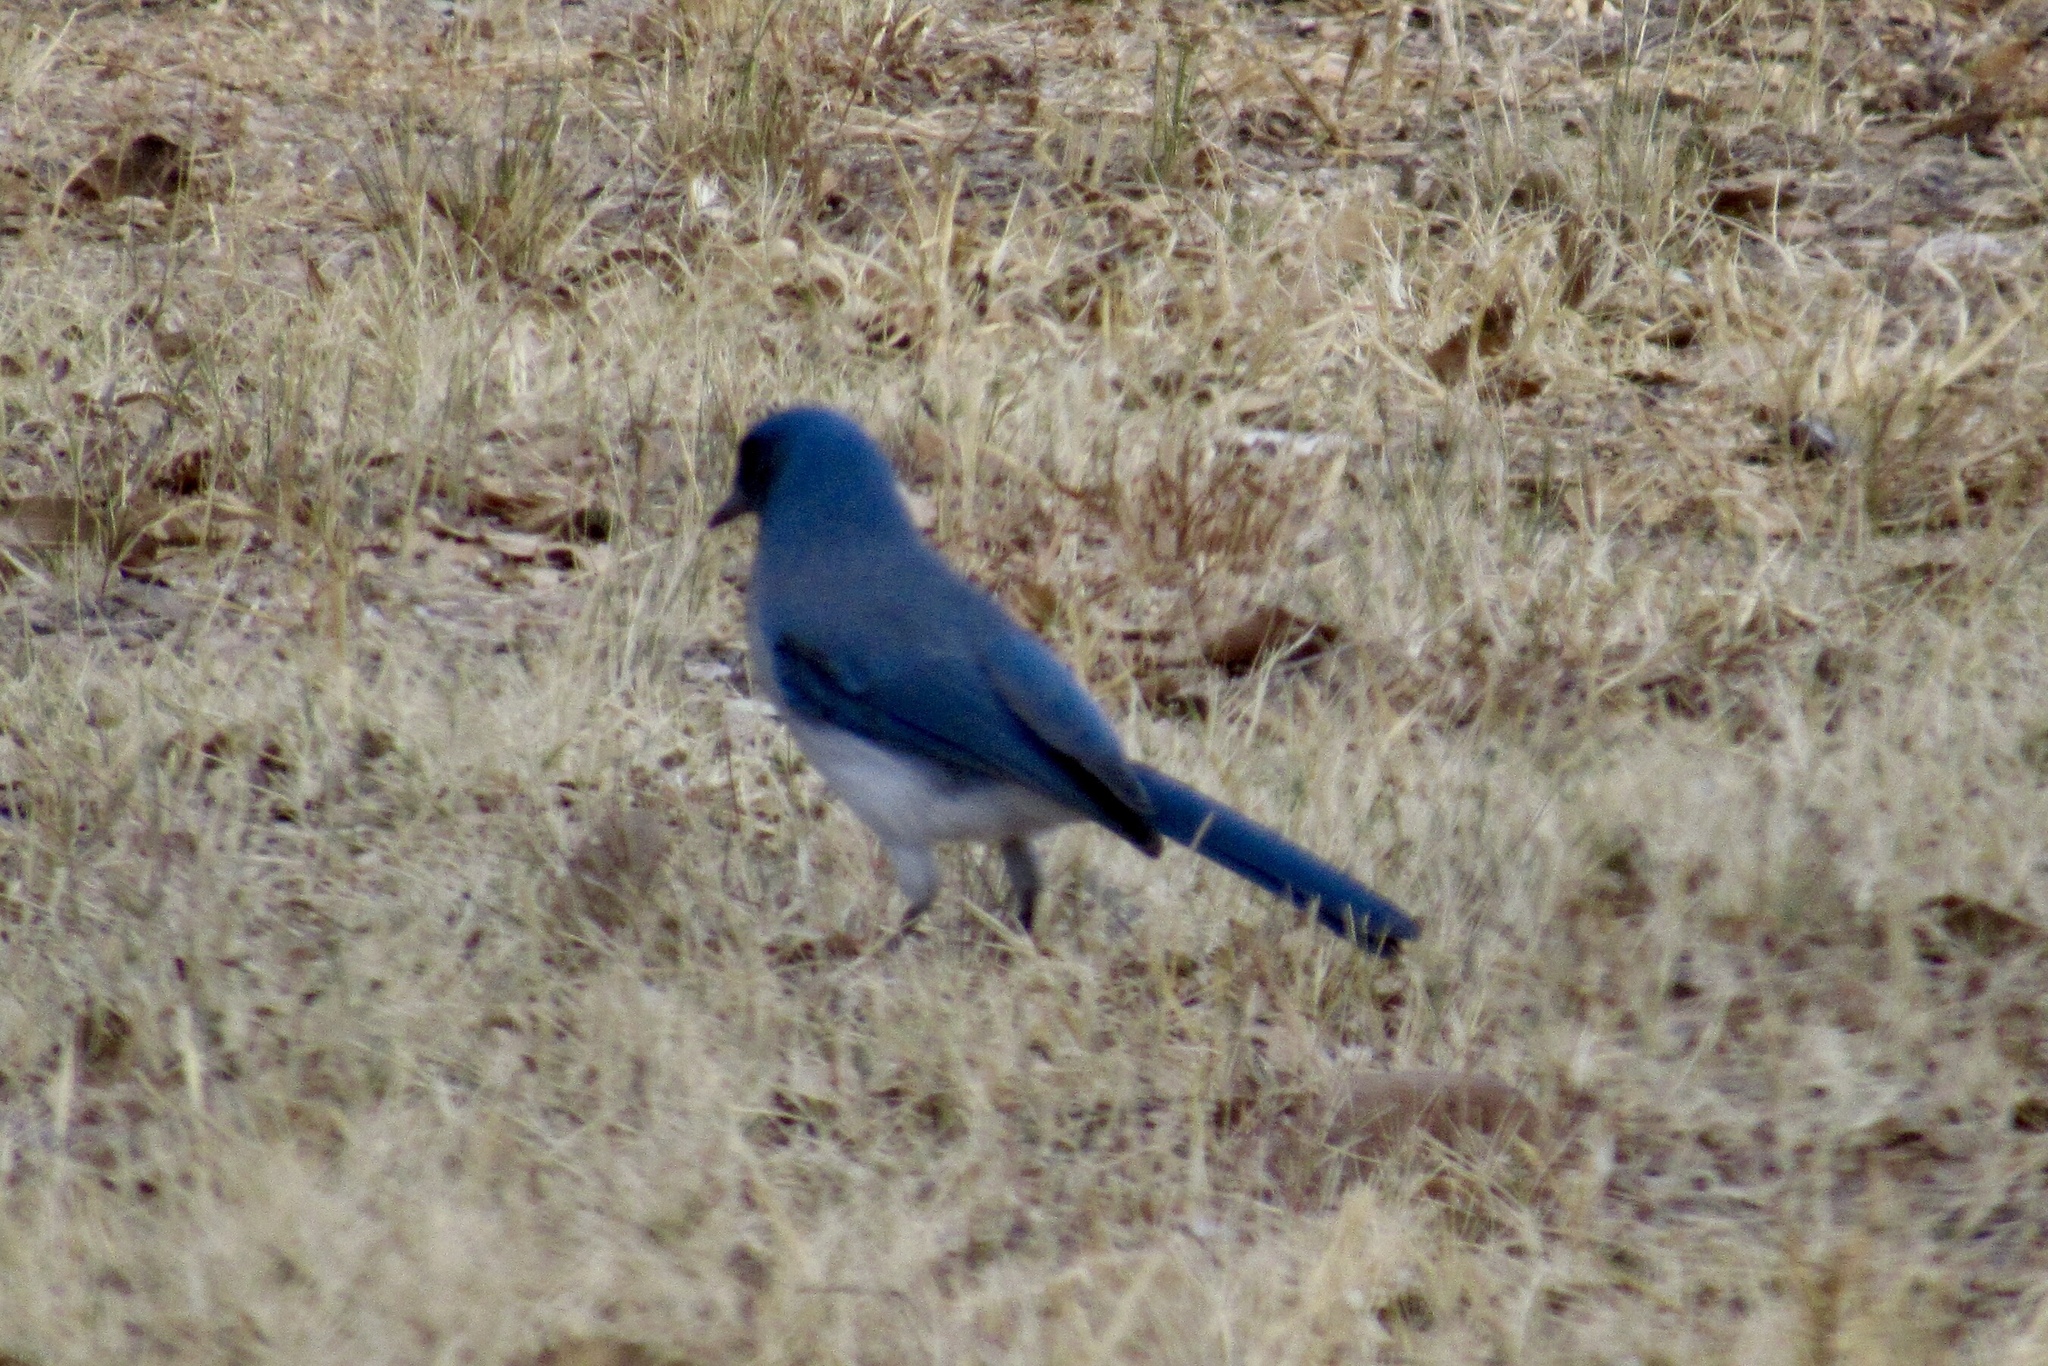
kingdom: Animalia
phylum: Chordata
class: Aves
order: Passeriformes
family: Corvidae
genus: Aphelocoma
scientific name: Aphelocoma wollweberi
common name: Mexican jay
